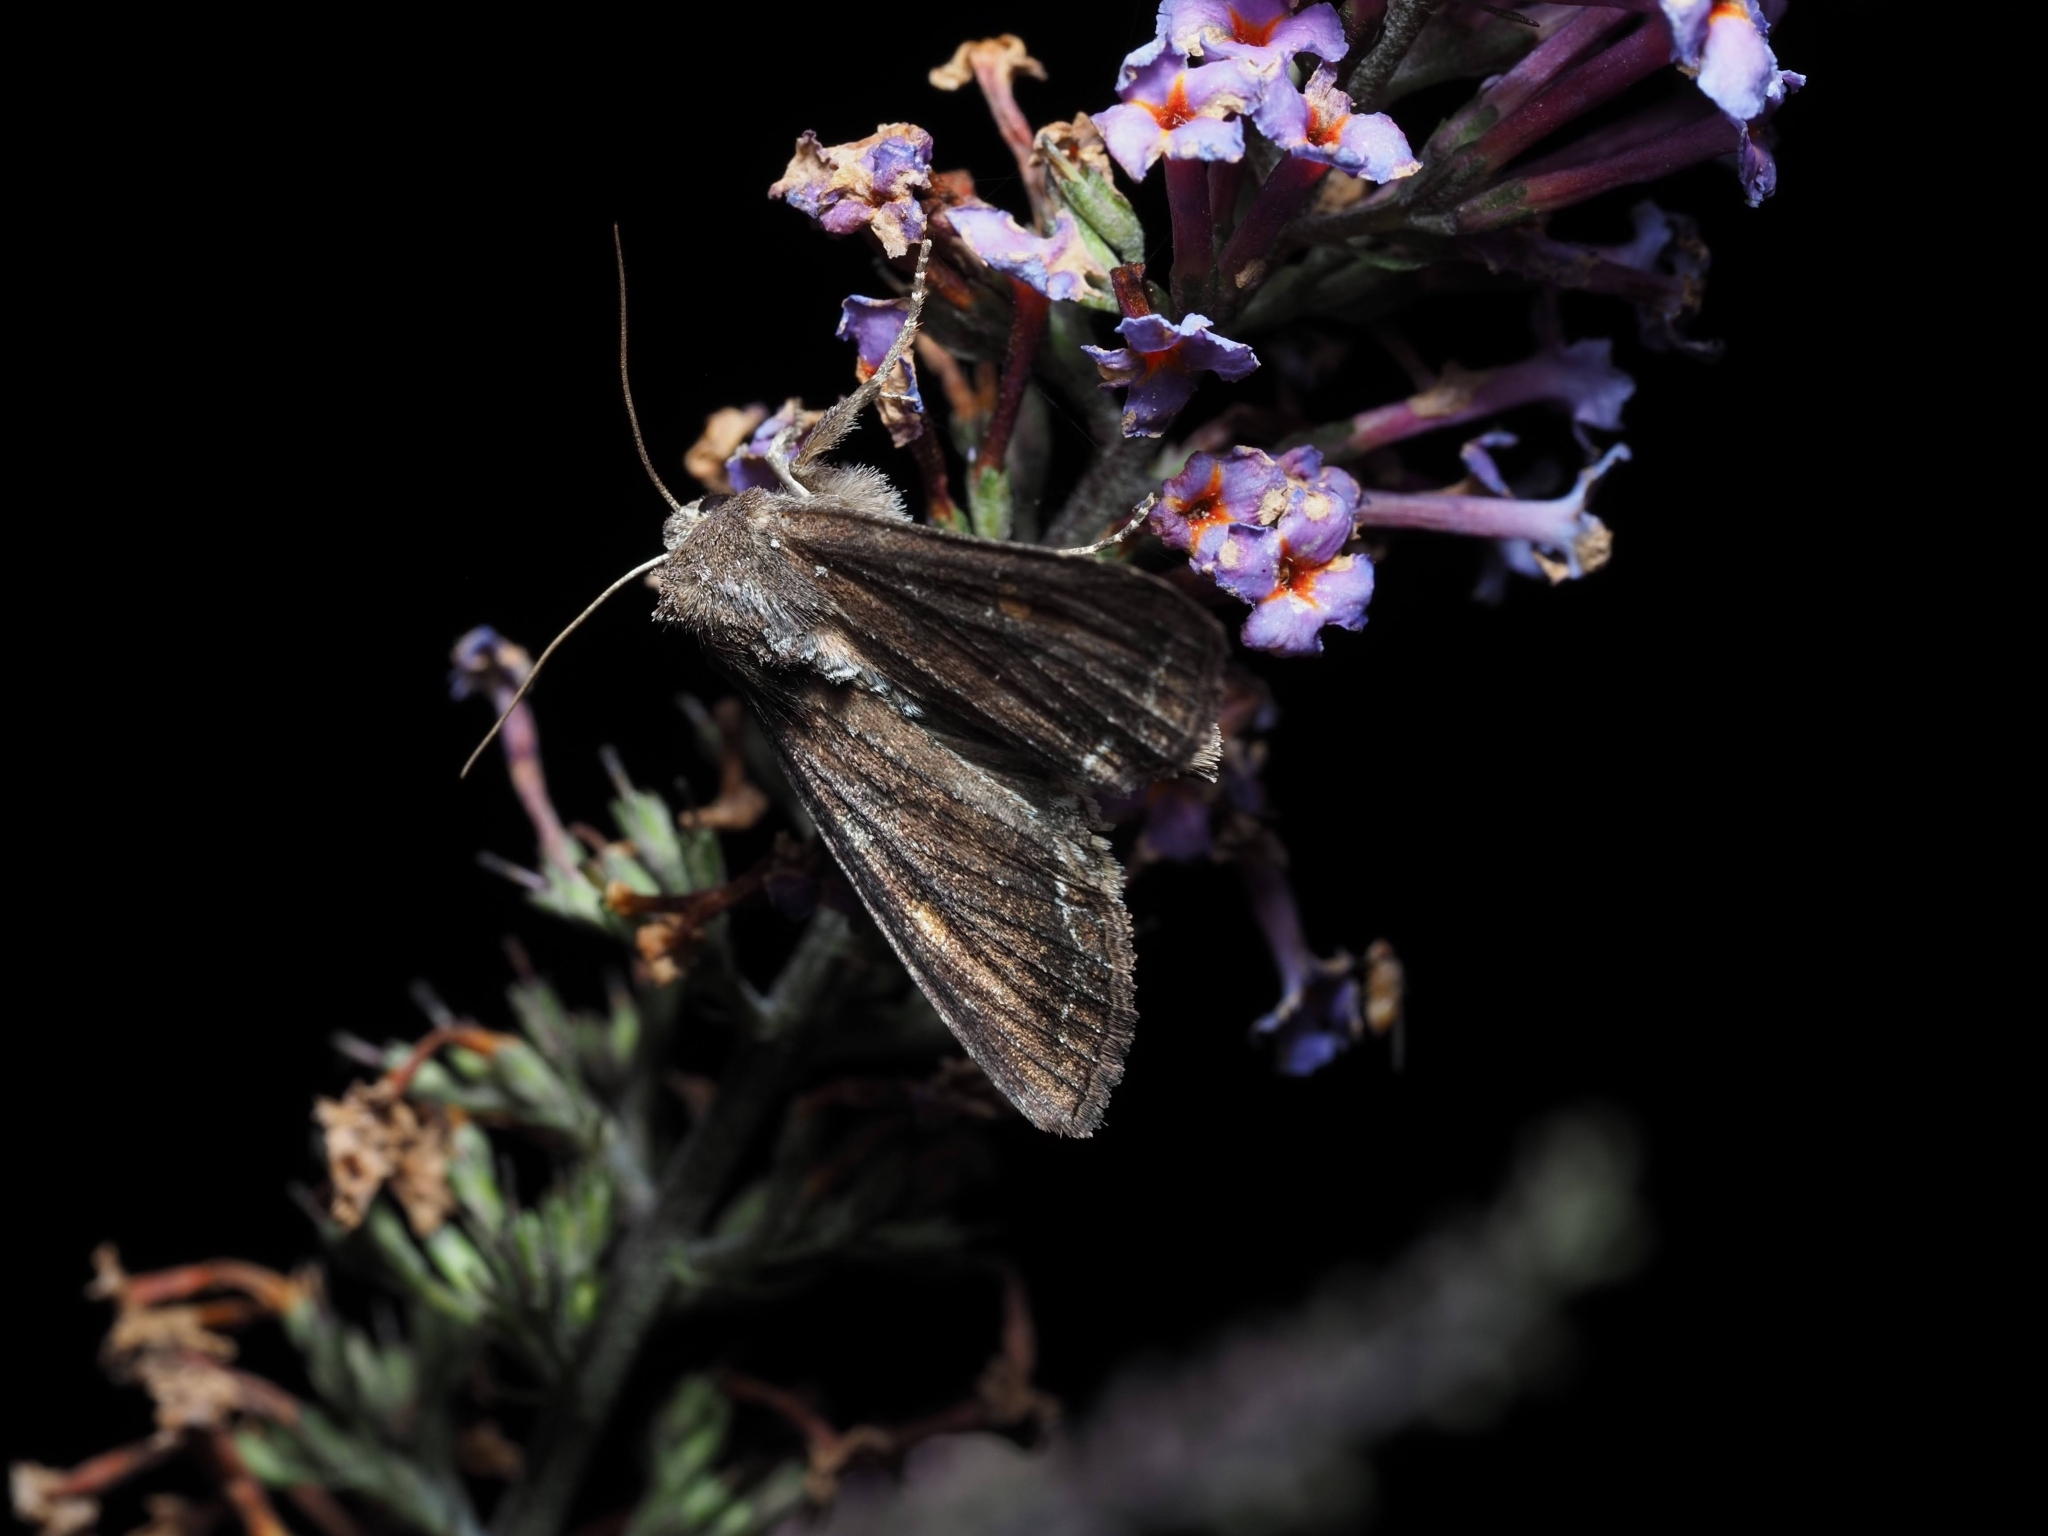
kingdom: Animalia
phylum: Arthropoda
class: Insecta
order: Lepidoptera
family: Noctuidae
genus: Lacanobia
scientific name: Lacanobia oleracea
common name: Bright-line brown-eye
